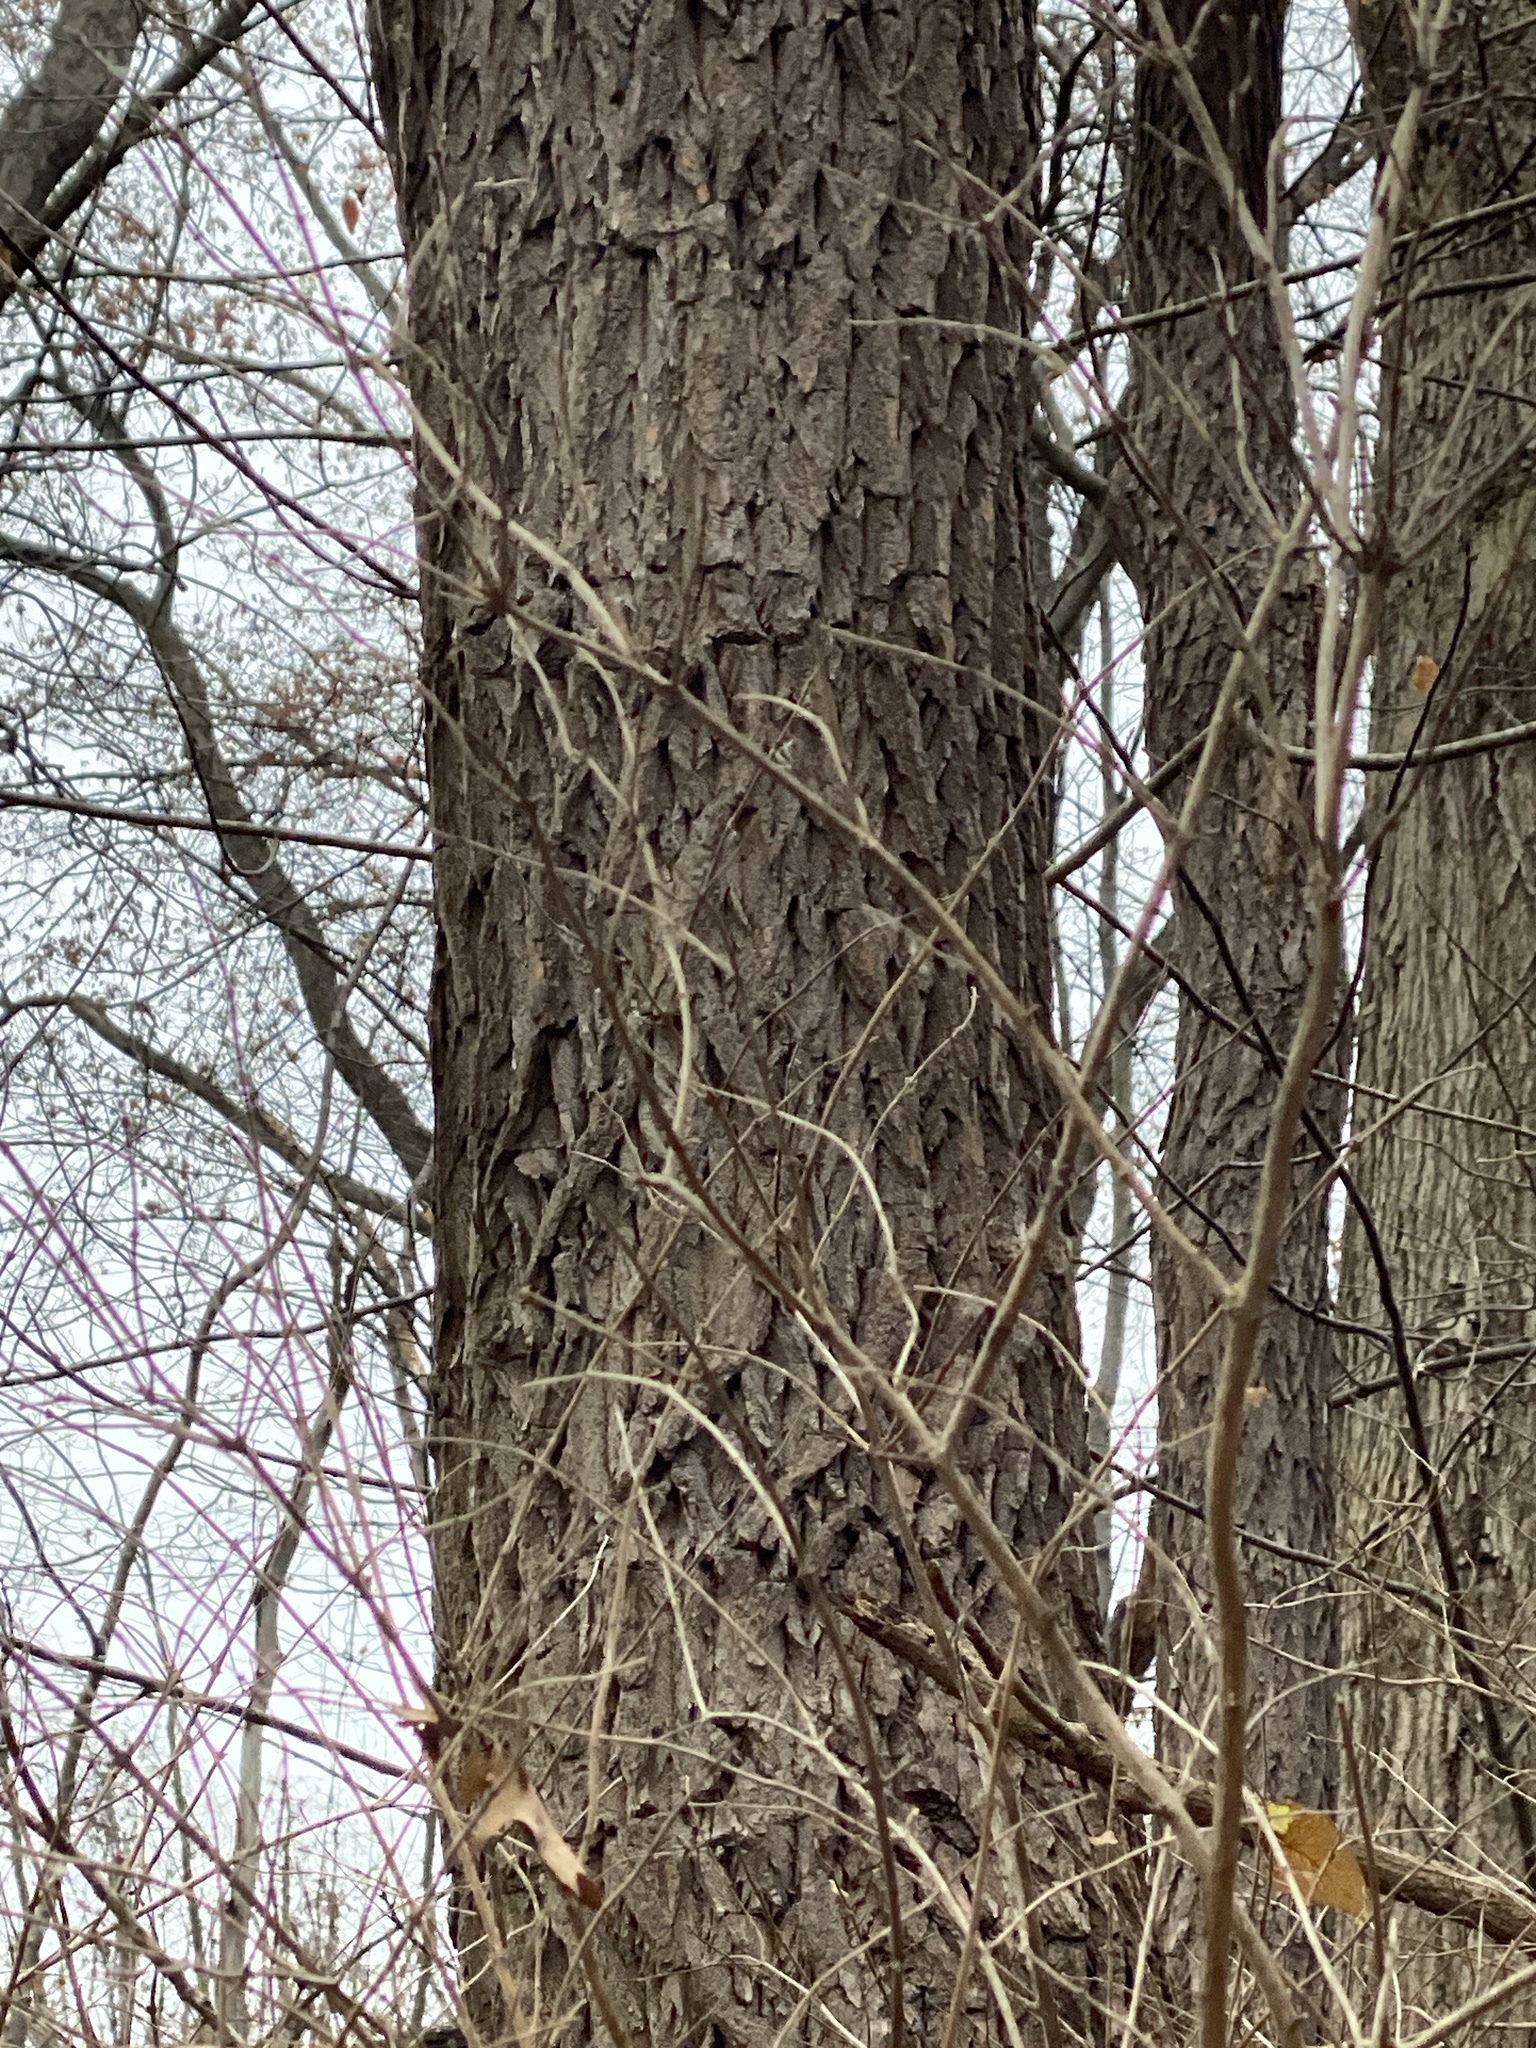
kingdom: Plantae
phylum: Tracheophyta
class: Magnoliopsida
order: Laurales
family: Lauraceae
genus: Sassafras
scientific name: Sassafras albidum
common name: Sassafras
